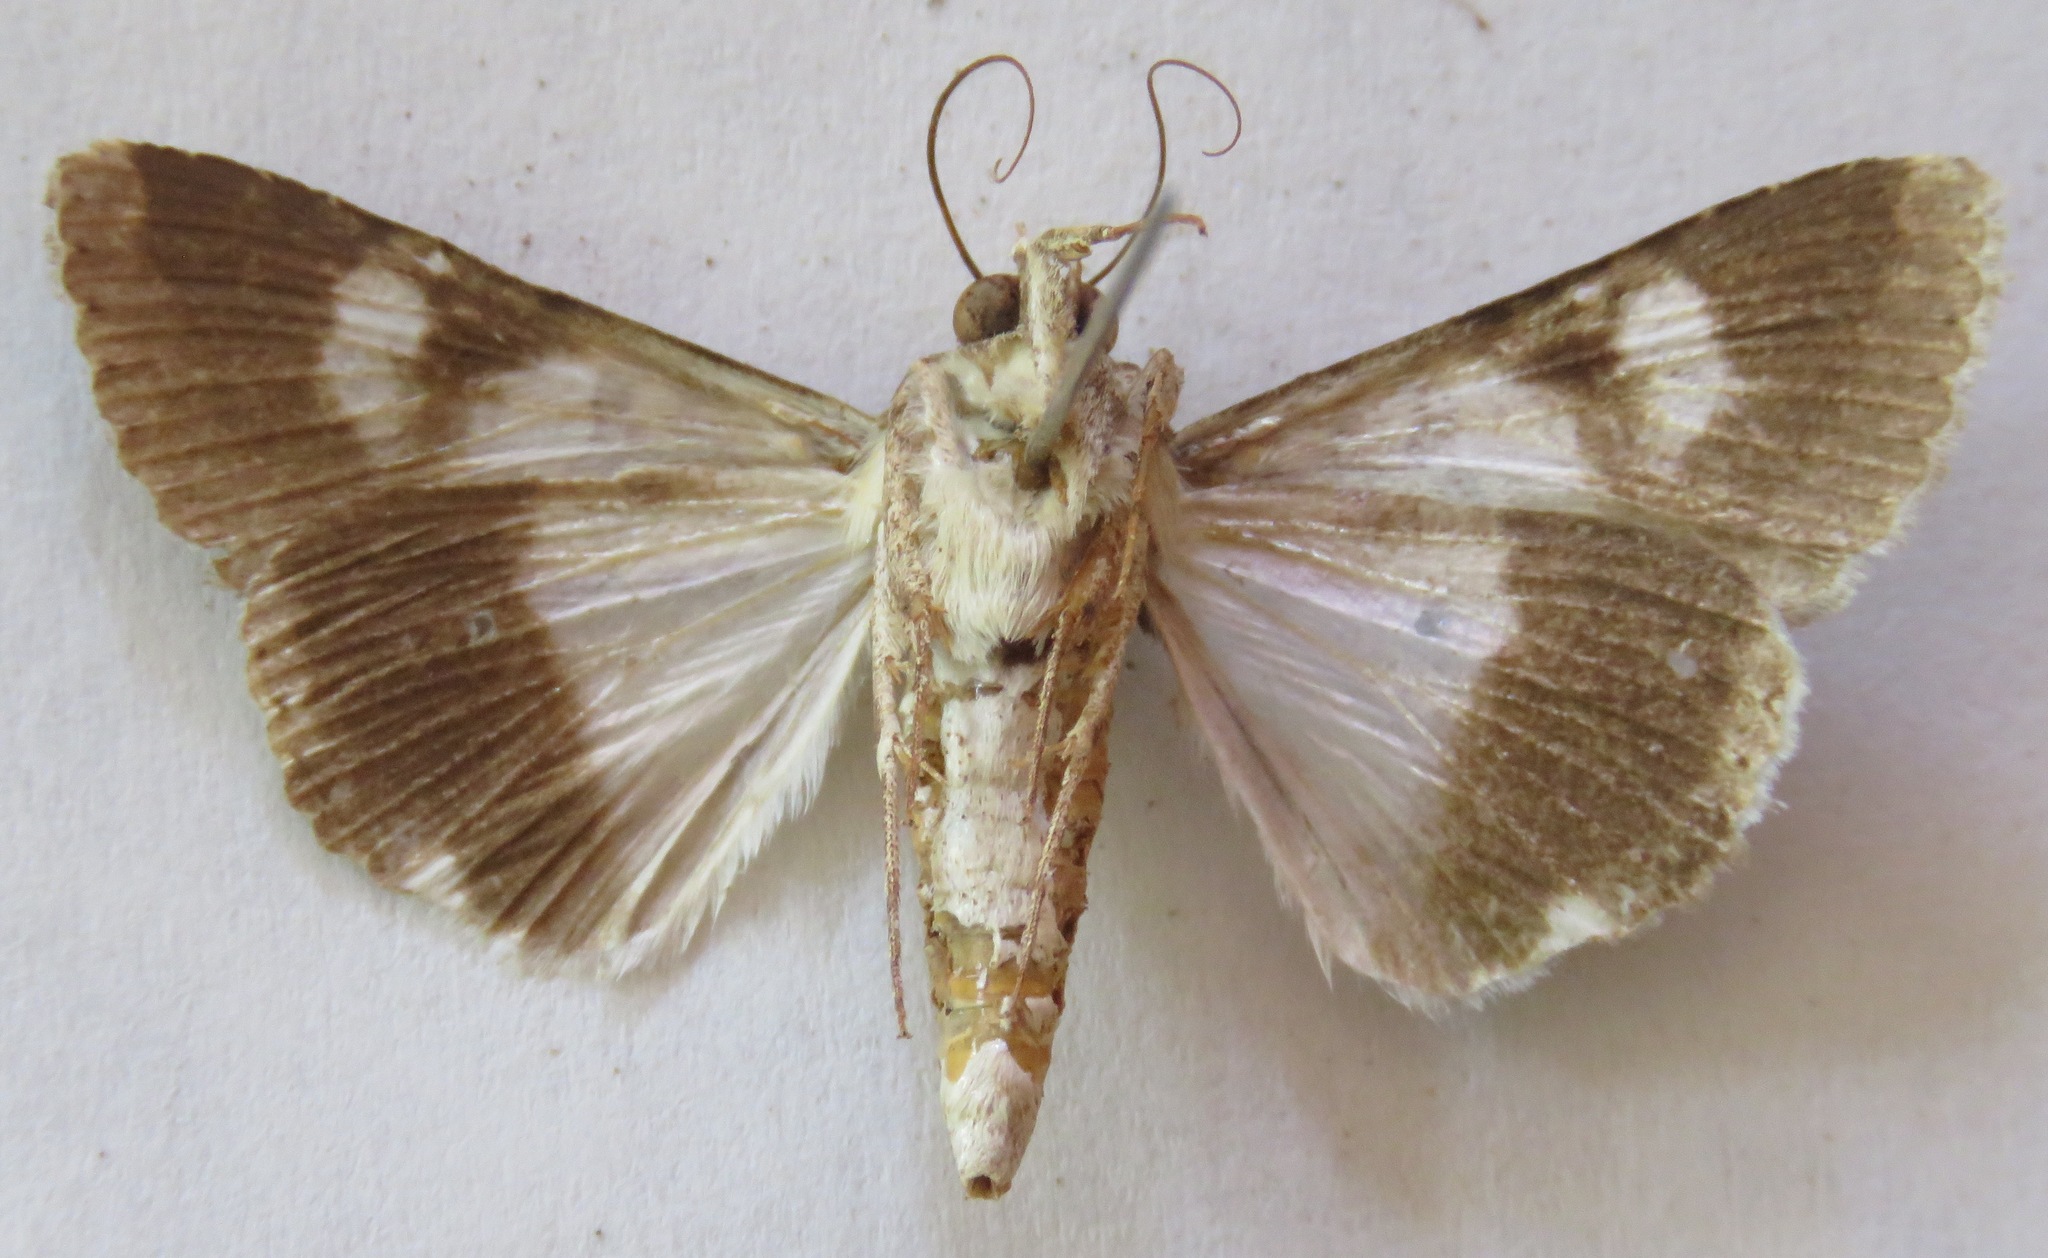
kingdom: Animalia
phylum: Arthropoda
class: Insecta
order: Lepidoptera
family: Erebidae
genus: Melipotis
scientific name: Melipotis famelica
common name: Famelica melipotis moth
